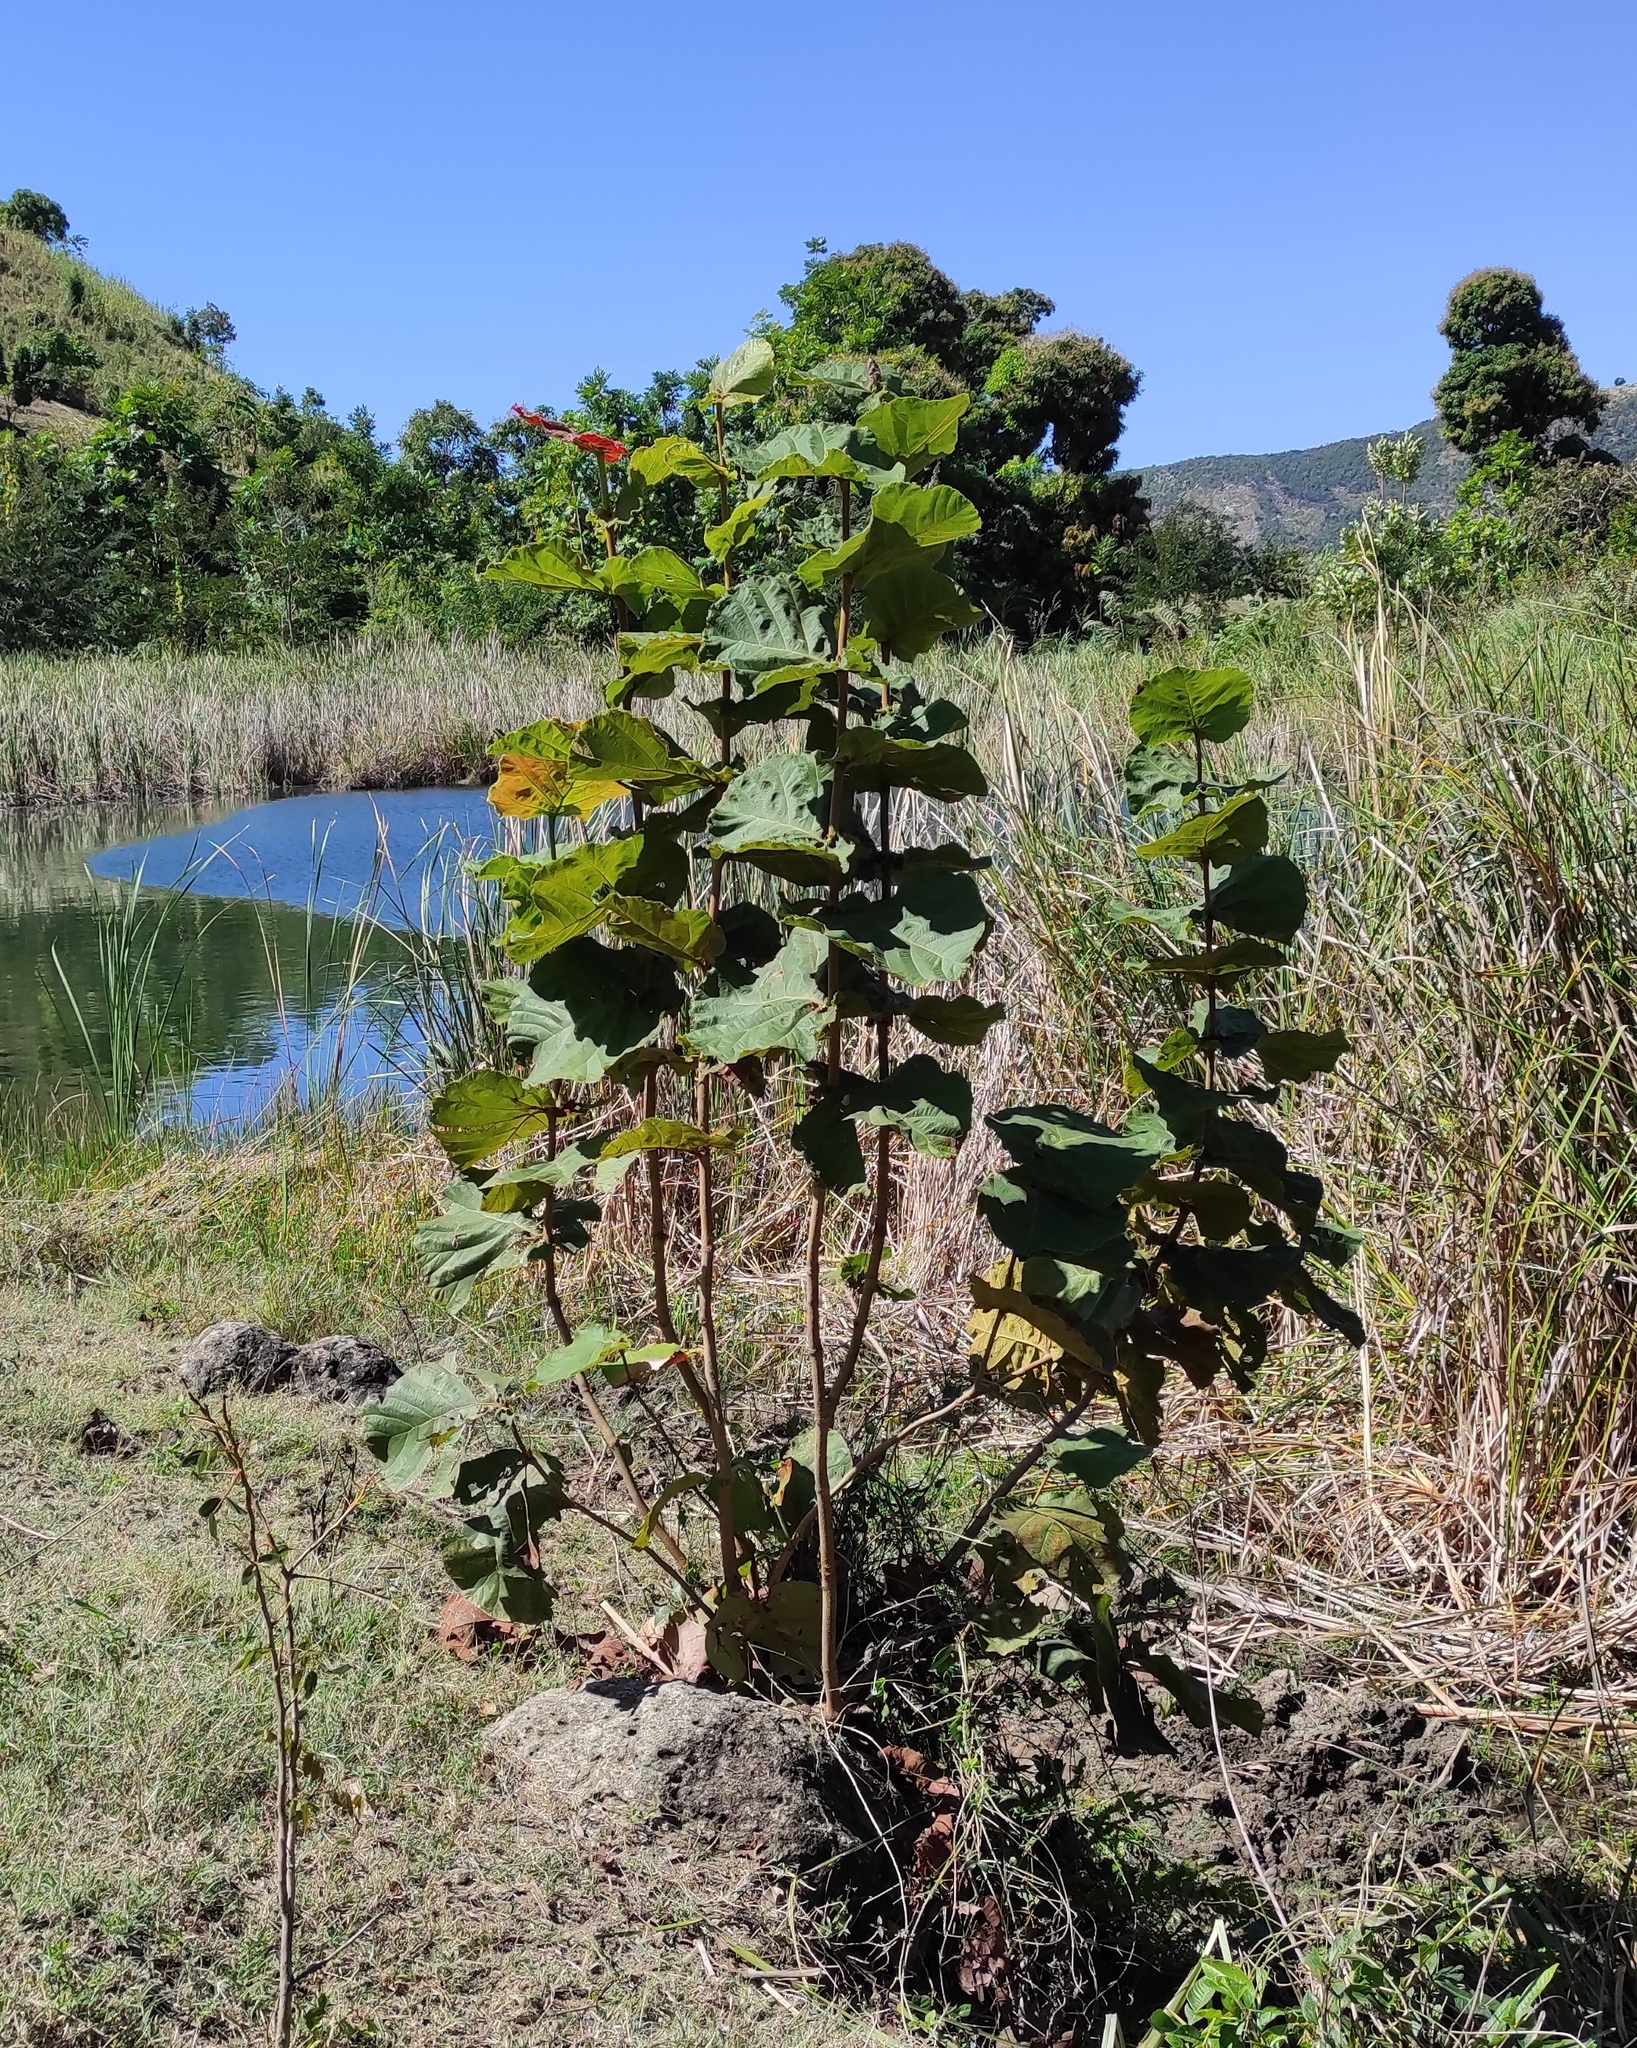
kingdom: Plantae
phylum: Tracheophyta
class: Magnoliopsida
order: Caryophyllales
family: Polygonaceae
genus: Coccoloba
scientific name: Coccoloba pubescens
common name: Mountain-grape
